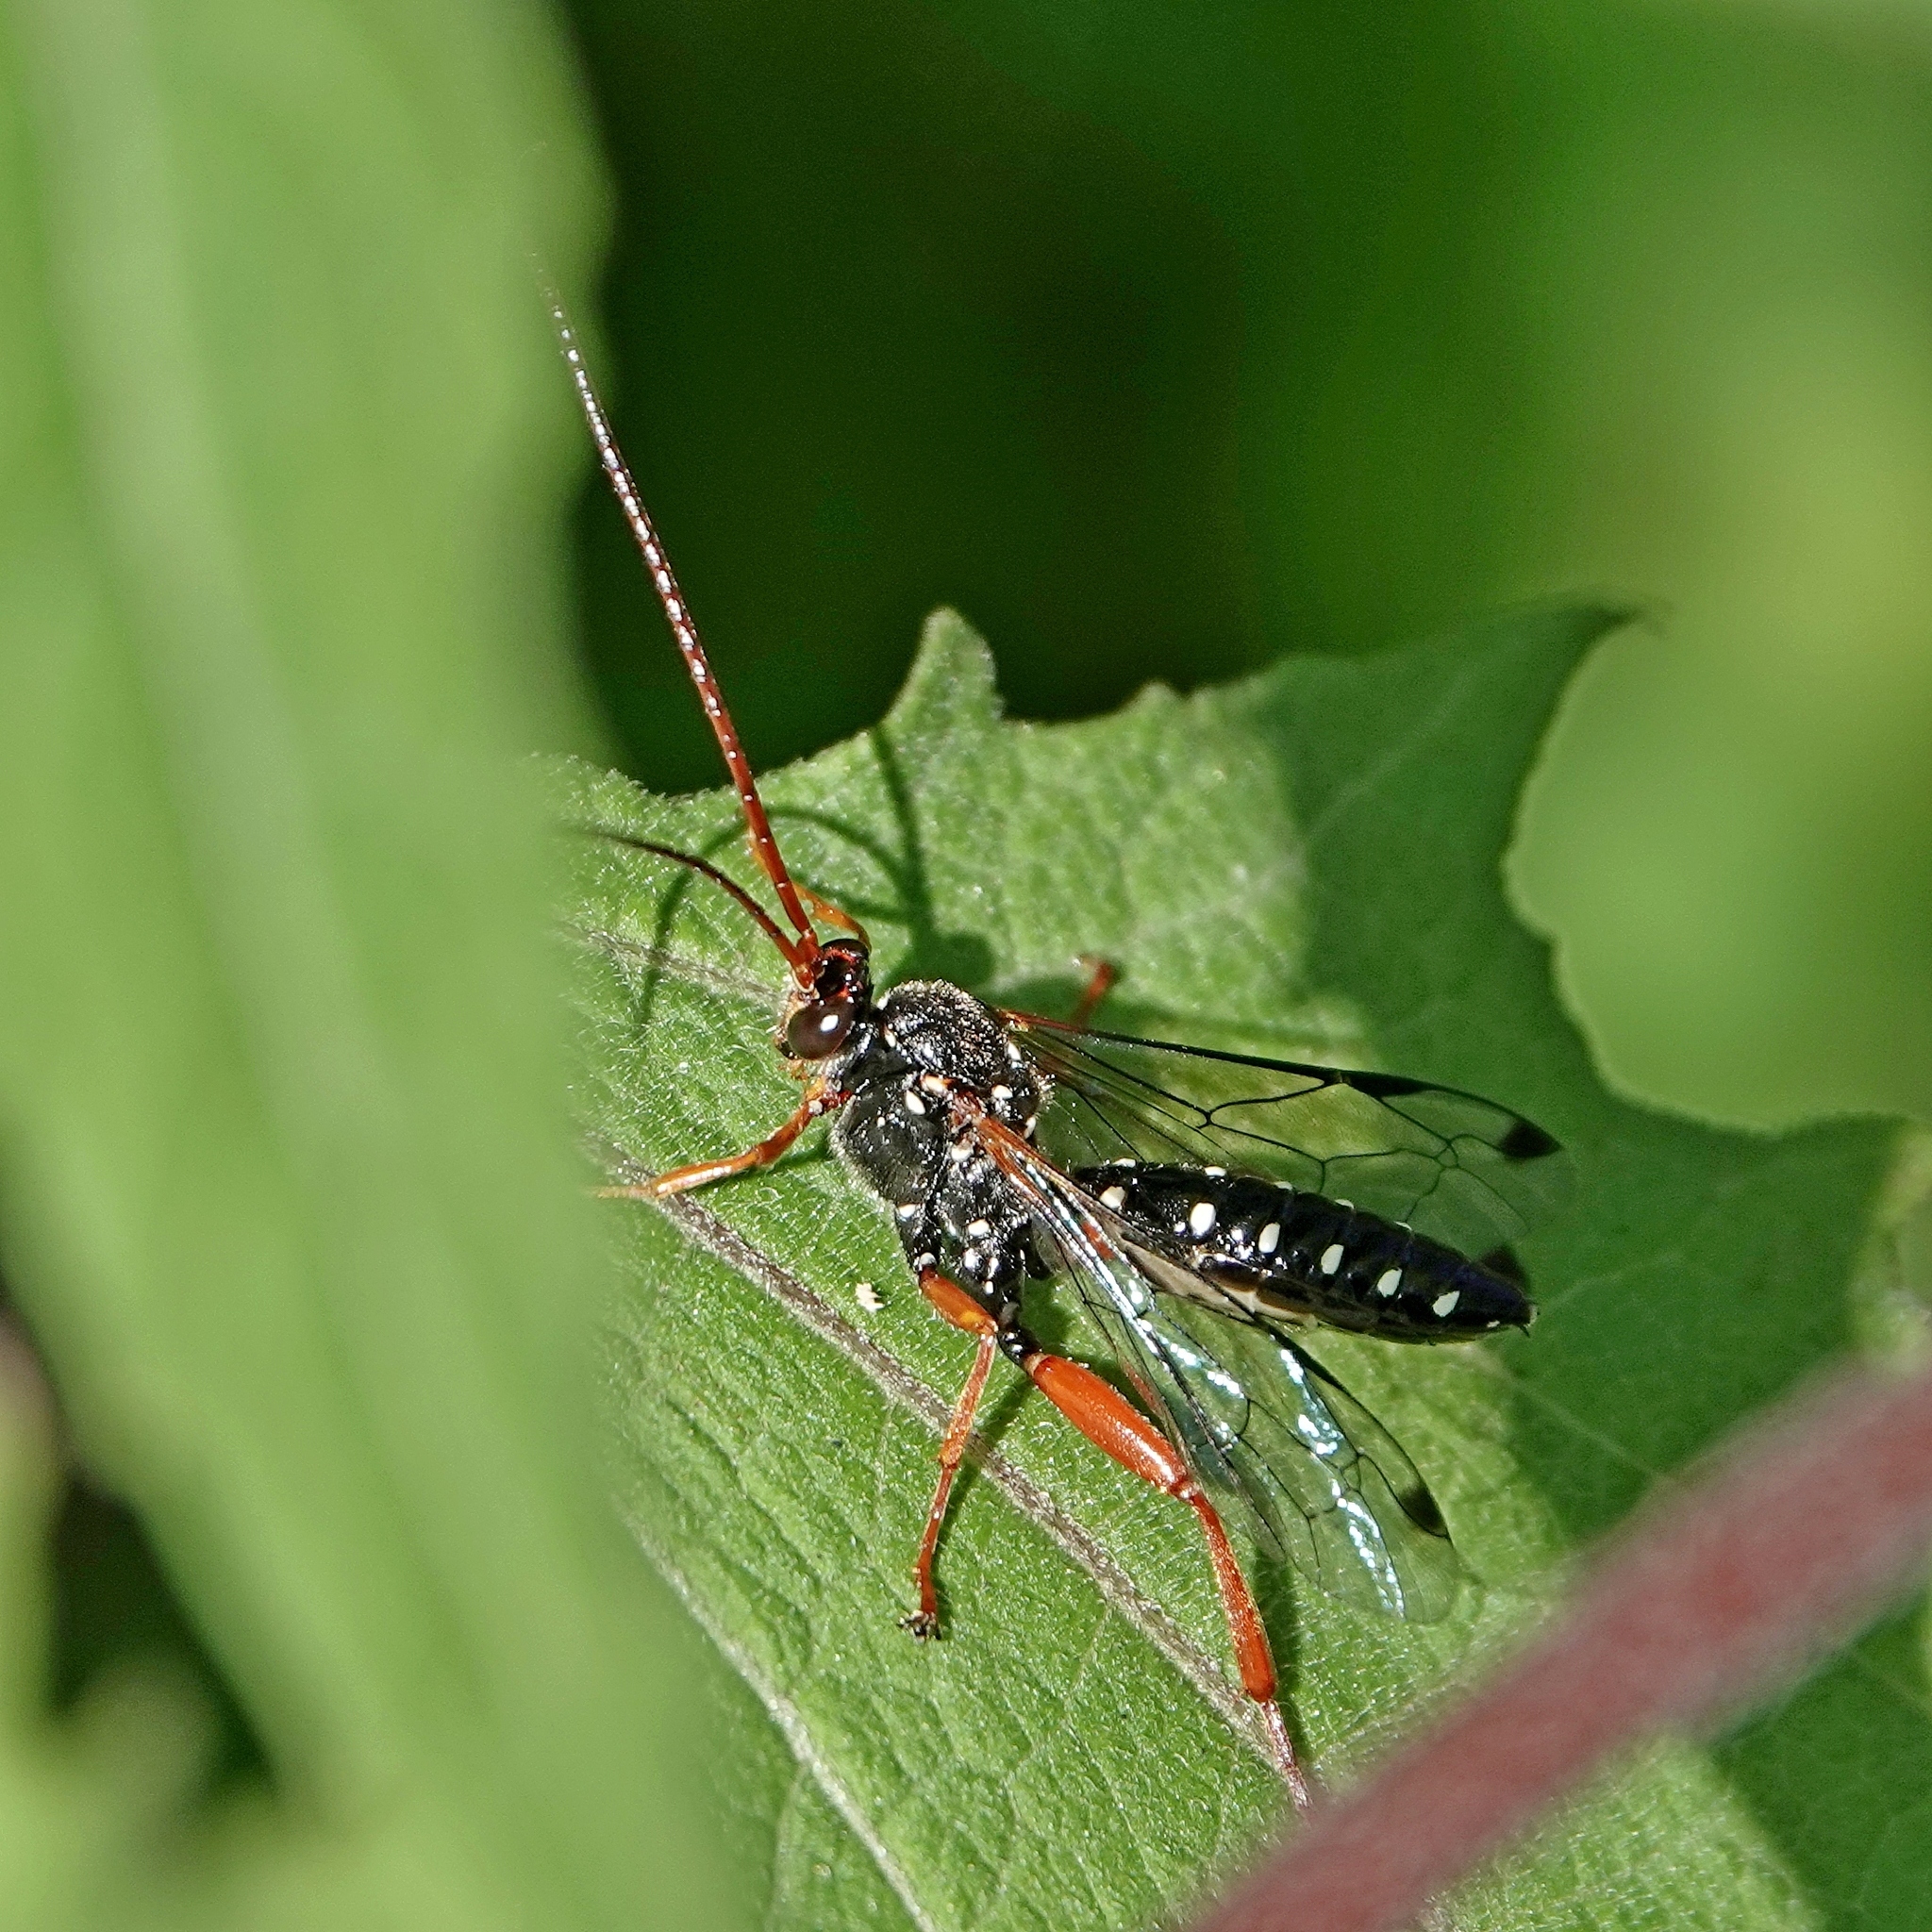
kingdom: Animalia
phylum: Arthropoda
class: Insecta
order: Hymenoptera
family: Ichneumonidae
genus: Echthromorpha
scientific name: Echthromorpha intricatoria
